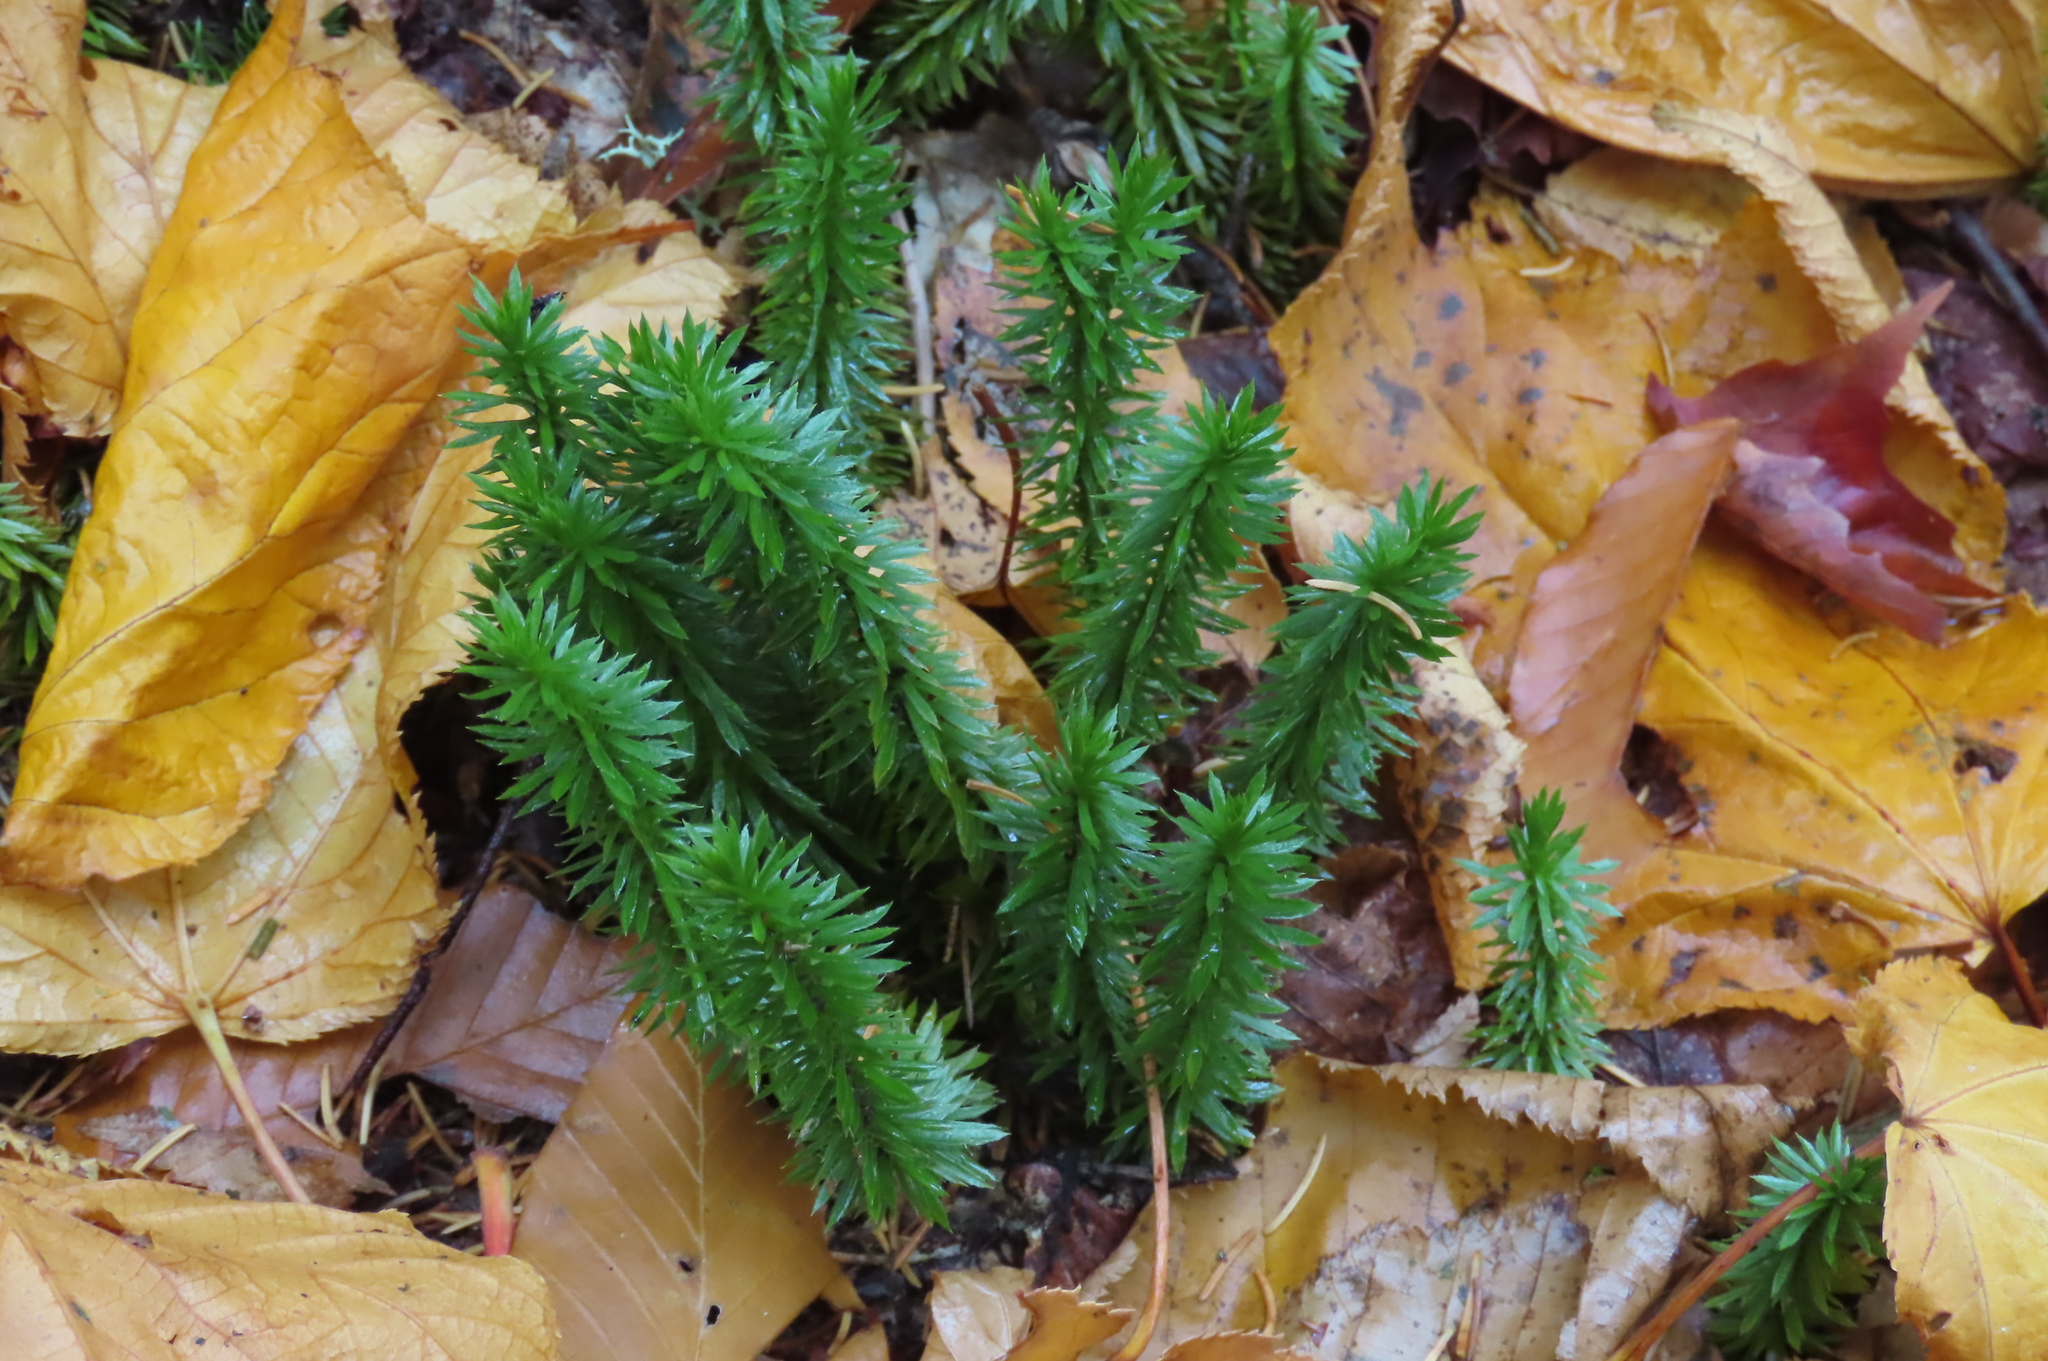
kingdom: Plantae
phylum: Tracheophyta
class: Lycopodiopsida
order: Lycopodiales
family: Lycopodiaceae
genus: Huperzia
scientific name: Huperzia lucidula
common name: Shining clubmoss
